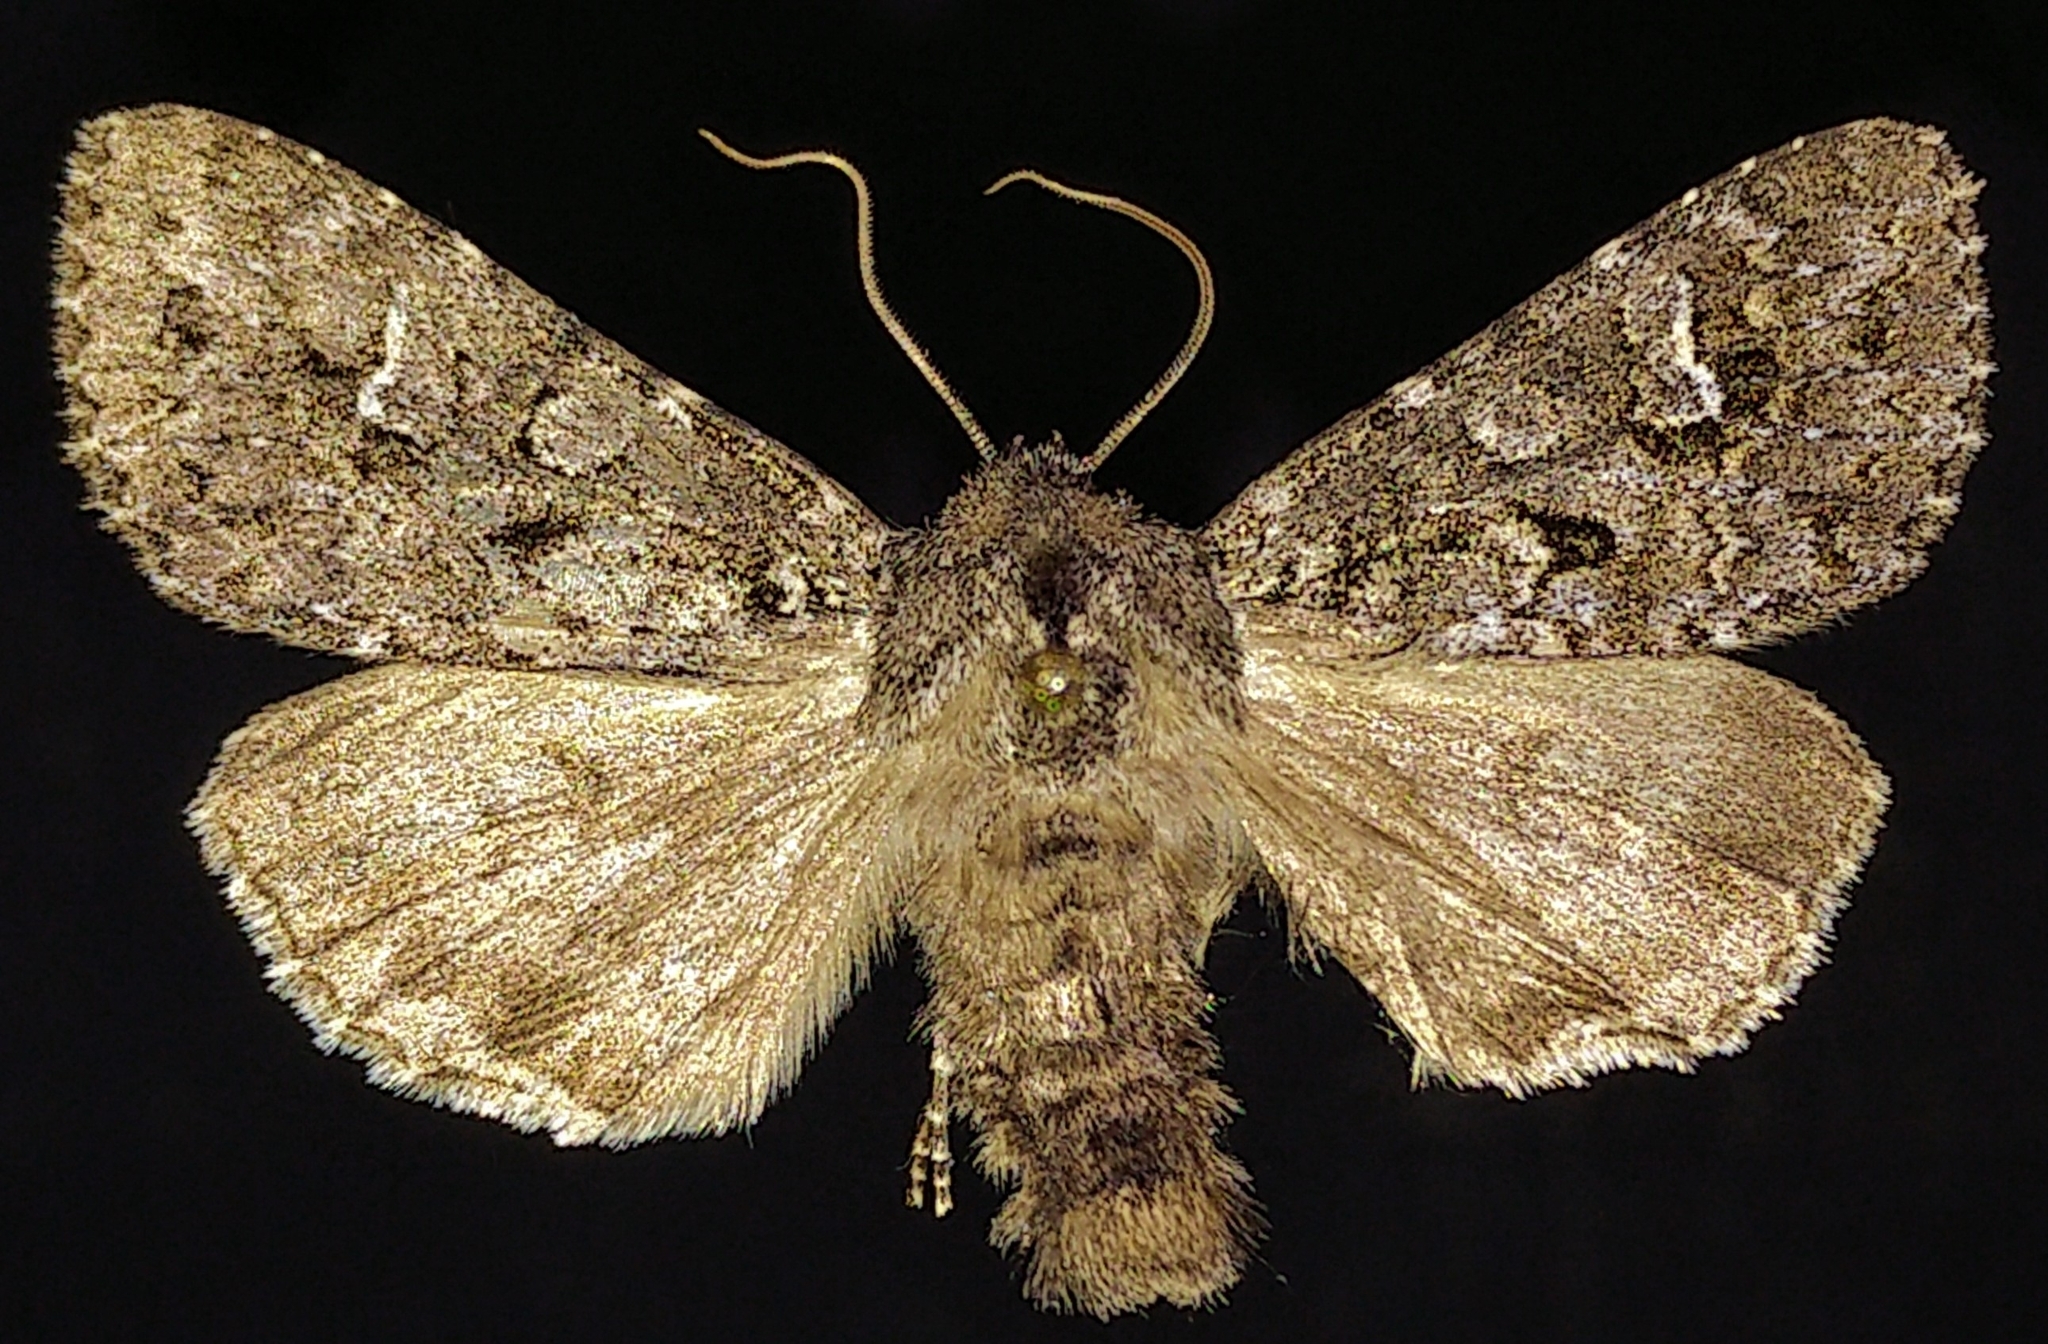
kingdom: Animalia
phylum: Arthropoda
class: Insecta
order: Lepidoptera
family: Noctuidae
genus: Polia
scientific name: Polia rogenhoferi
